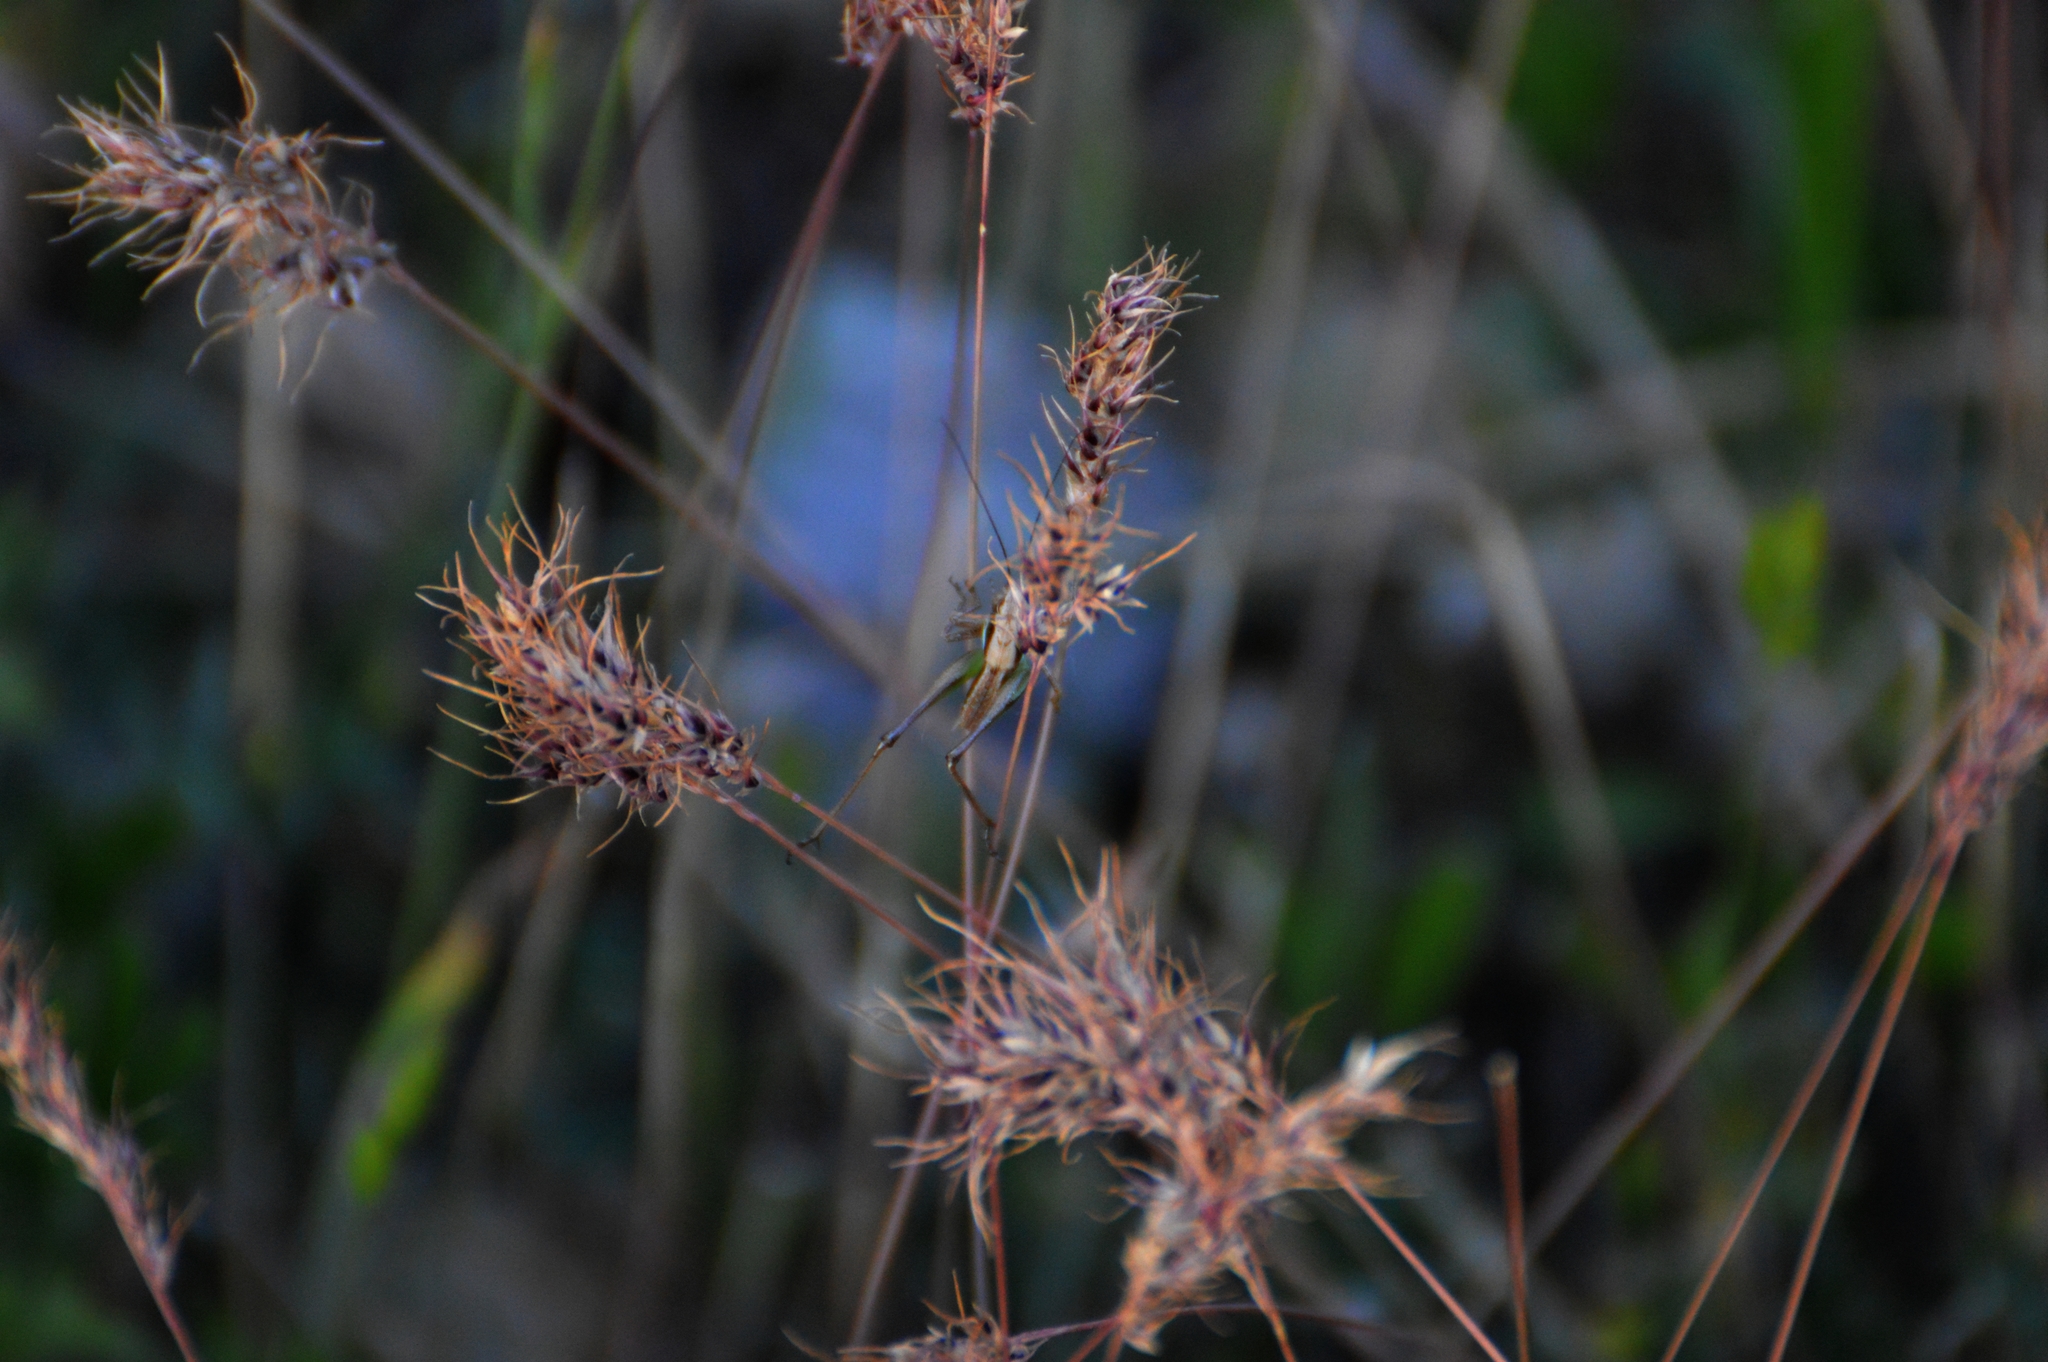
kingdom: Animalia
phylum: Arthropoda
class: Insecta
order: Orthoptera
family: Tettigoniidae
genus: Platycleis
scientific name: Platycleis grisea
